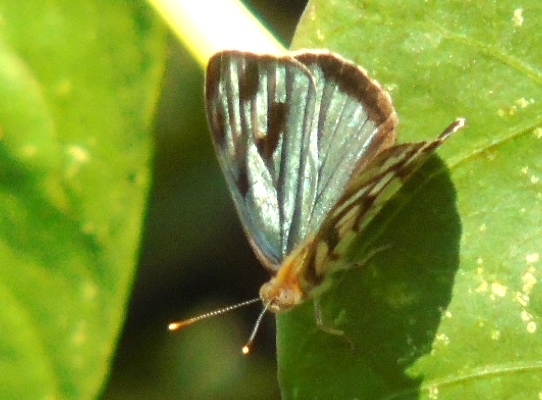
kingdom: Animalia
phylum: Arthropoda
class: Insecta
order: Lepidoptera
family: Nymphalidae
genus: Dynamine
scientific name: Dynamine mylitta
